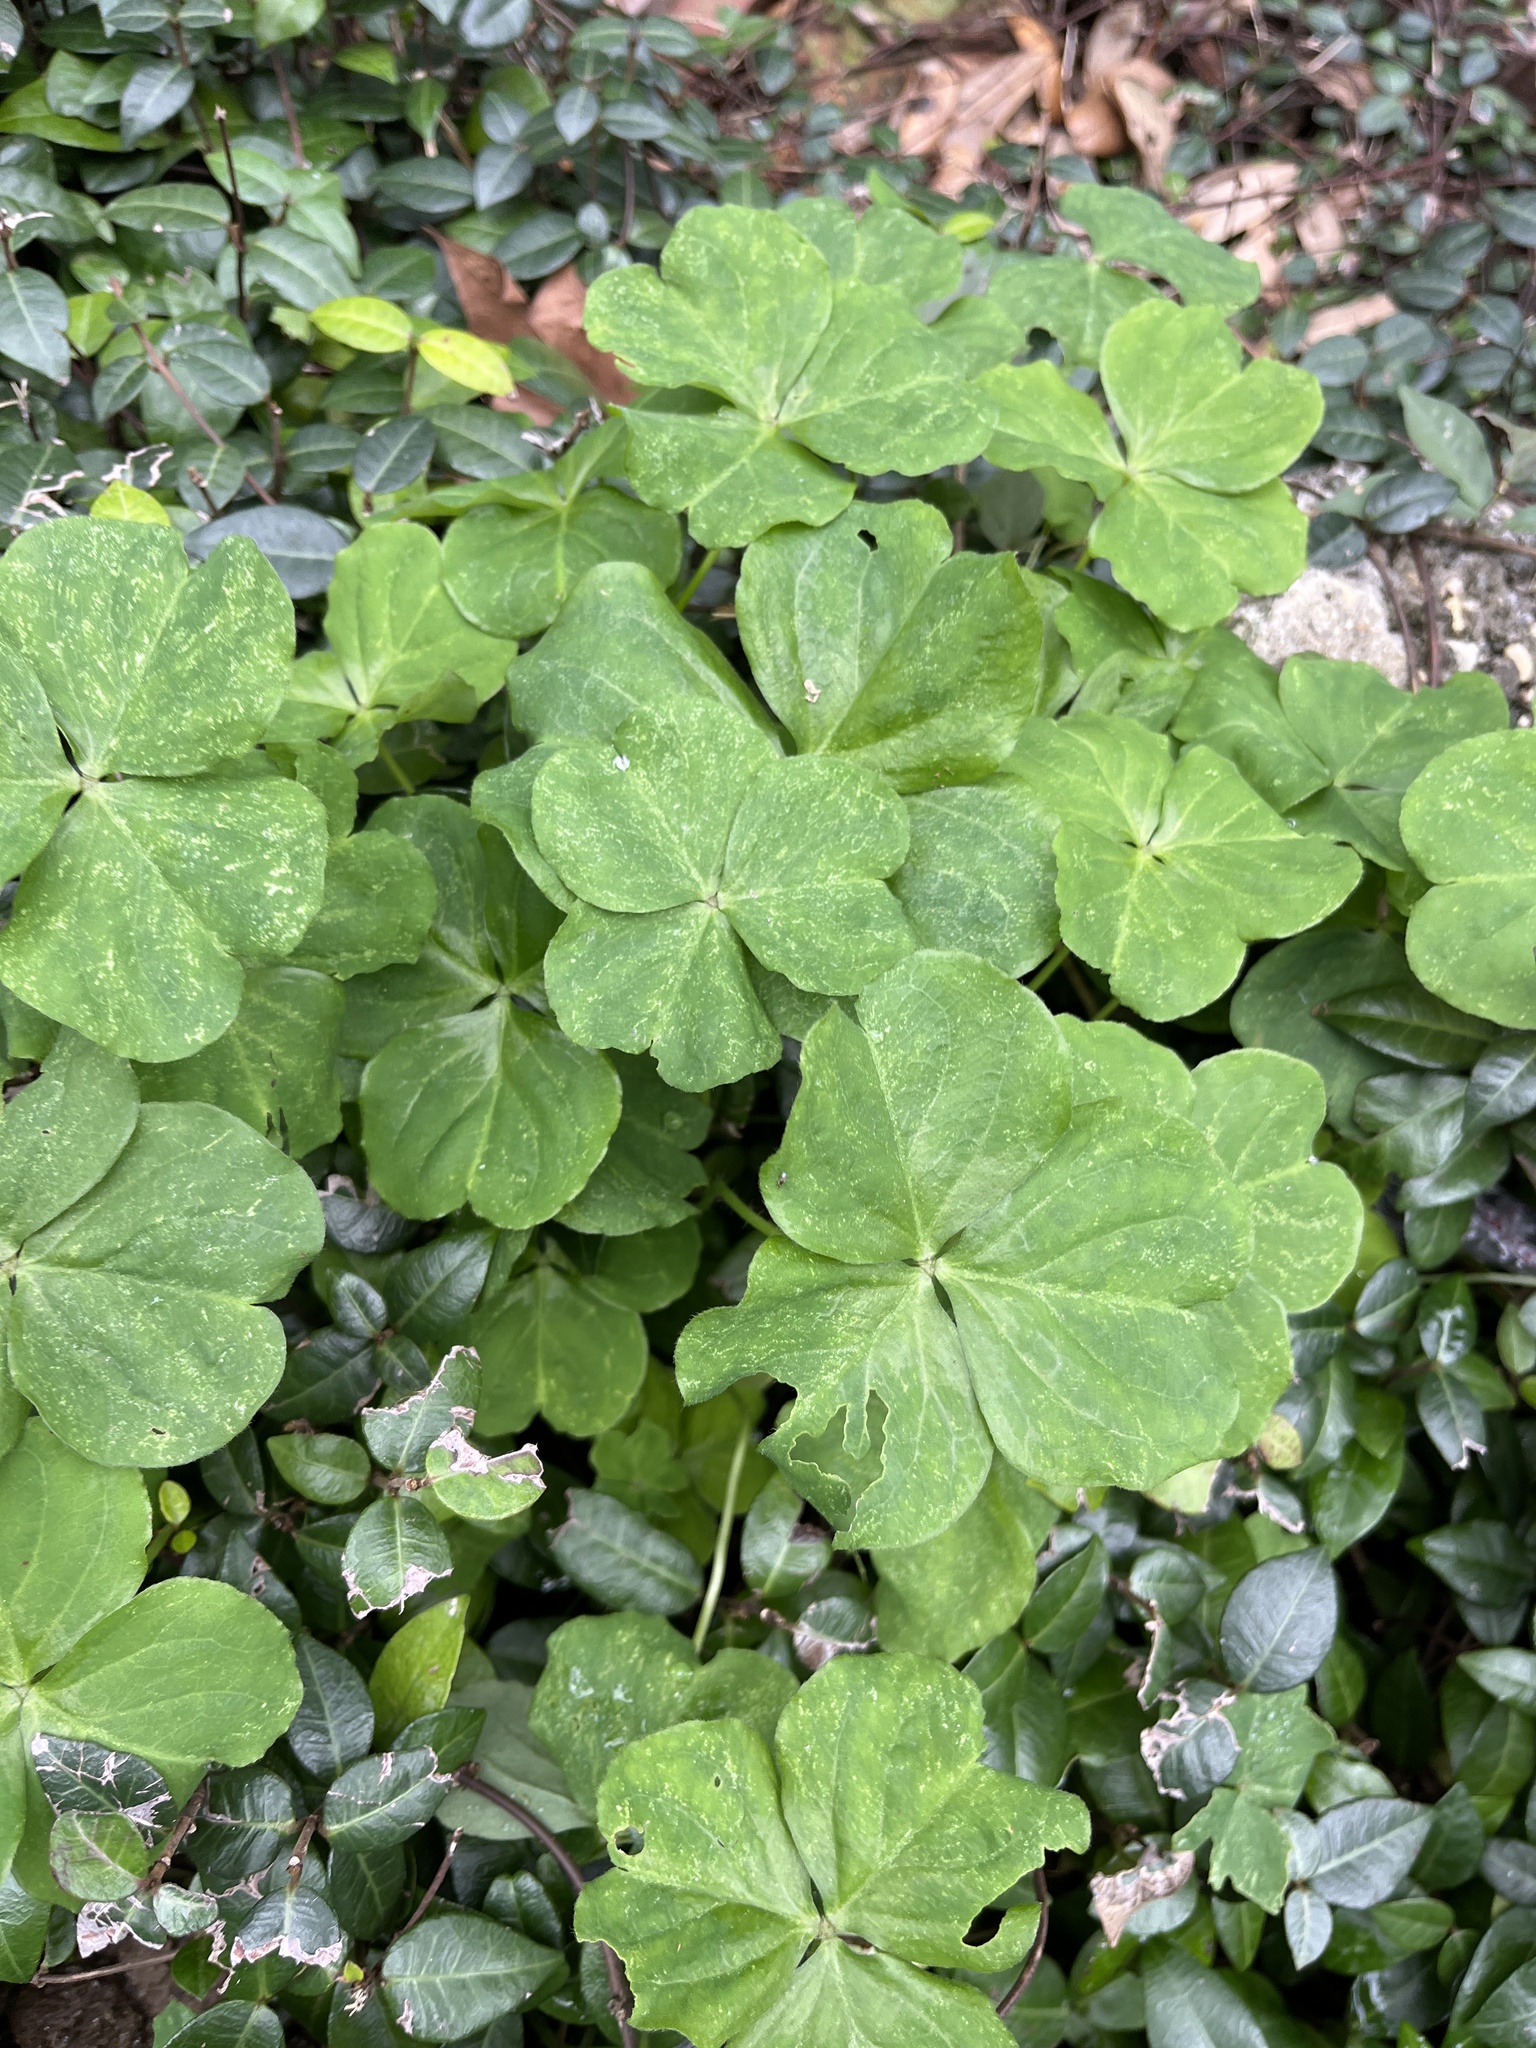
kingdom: Plantae
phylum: Tracheophyta
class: Magnoliopsida
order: Oxalidales
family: Oxalidaceae
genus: Oxalis
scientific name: Oxalis debilis
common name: Large-flowered pink-sorrel
